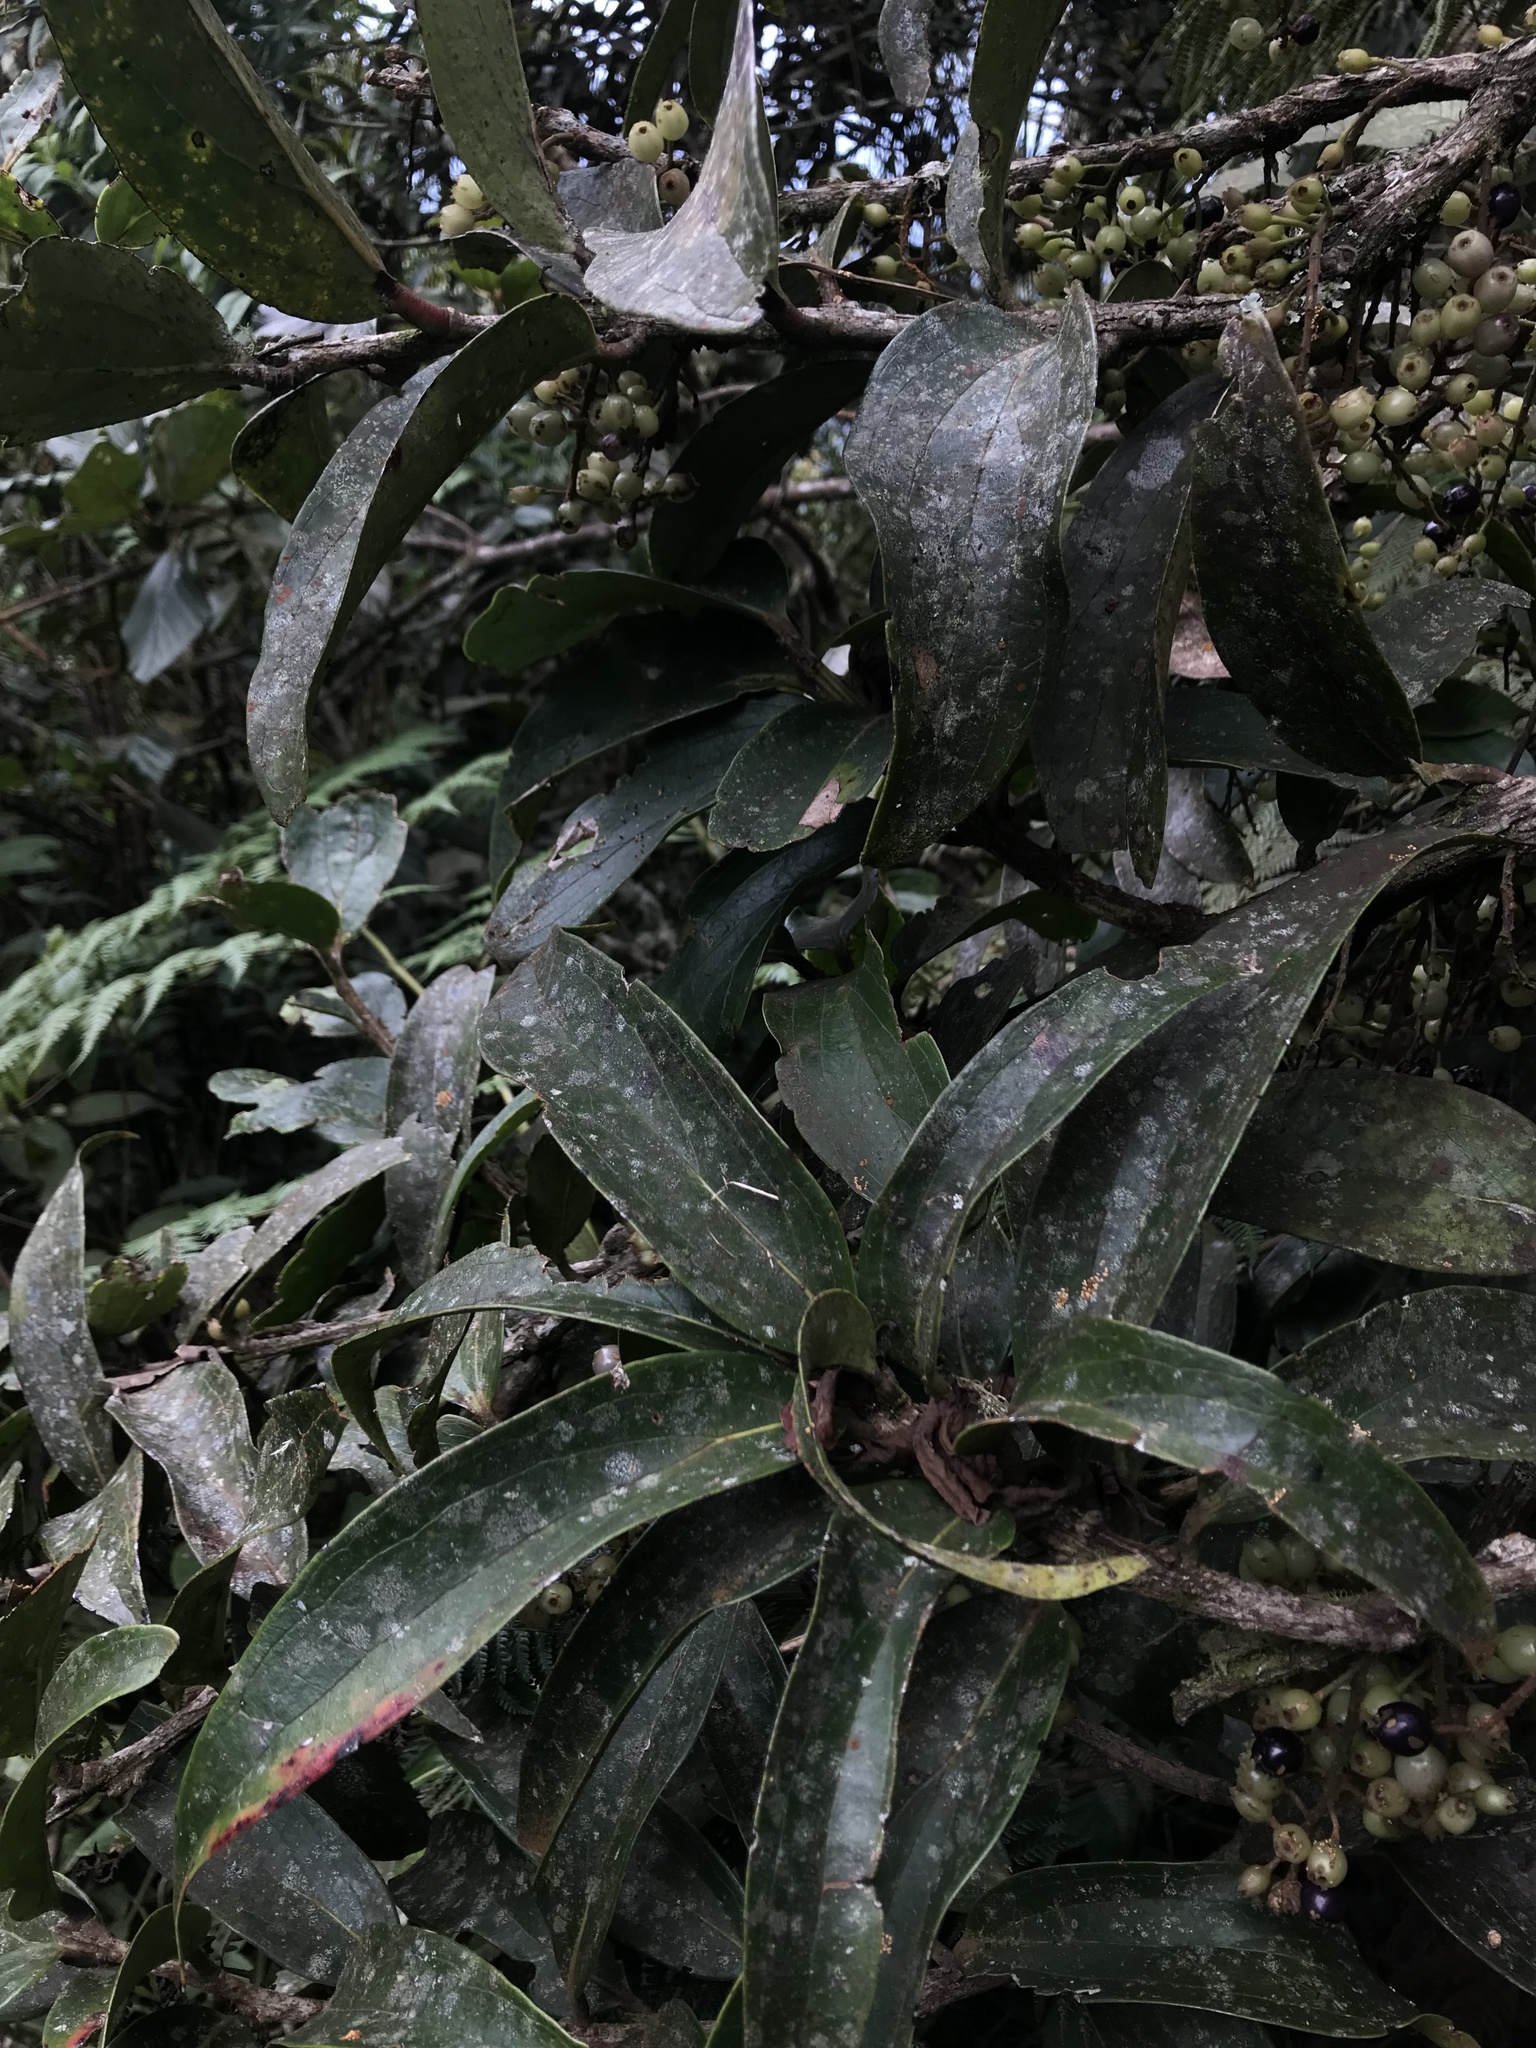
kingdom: Plantae
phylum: Tracheophyta
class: Magnoliopsida
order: Ericales
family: Ericaceae
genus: Thibaudia
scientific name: Thibaudia floribunda
